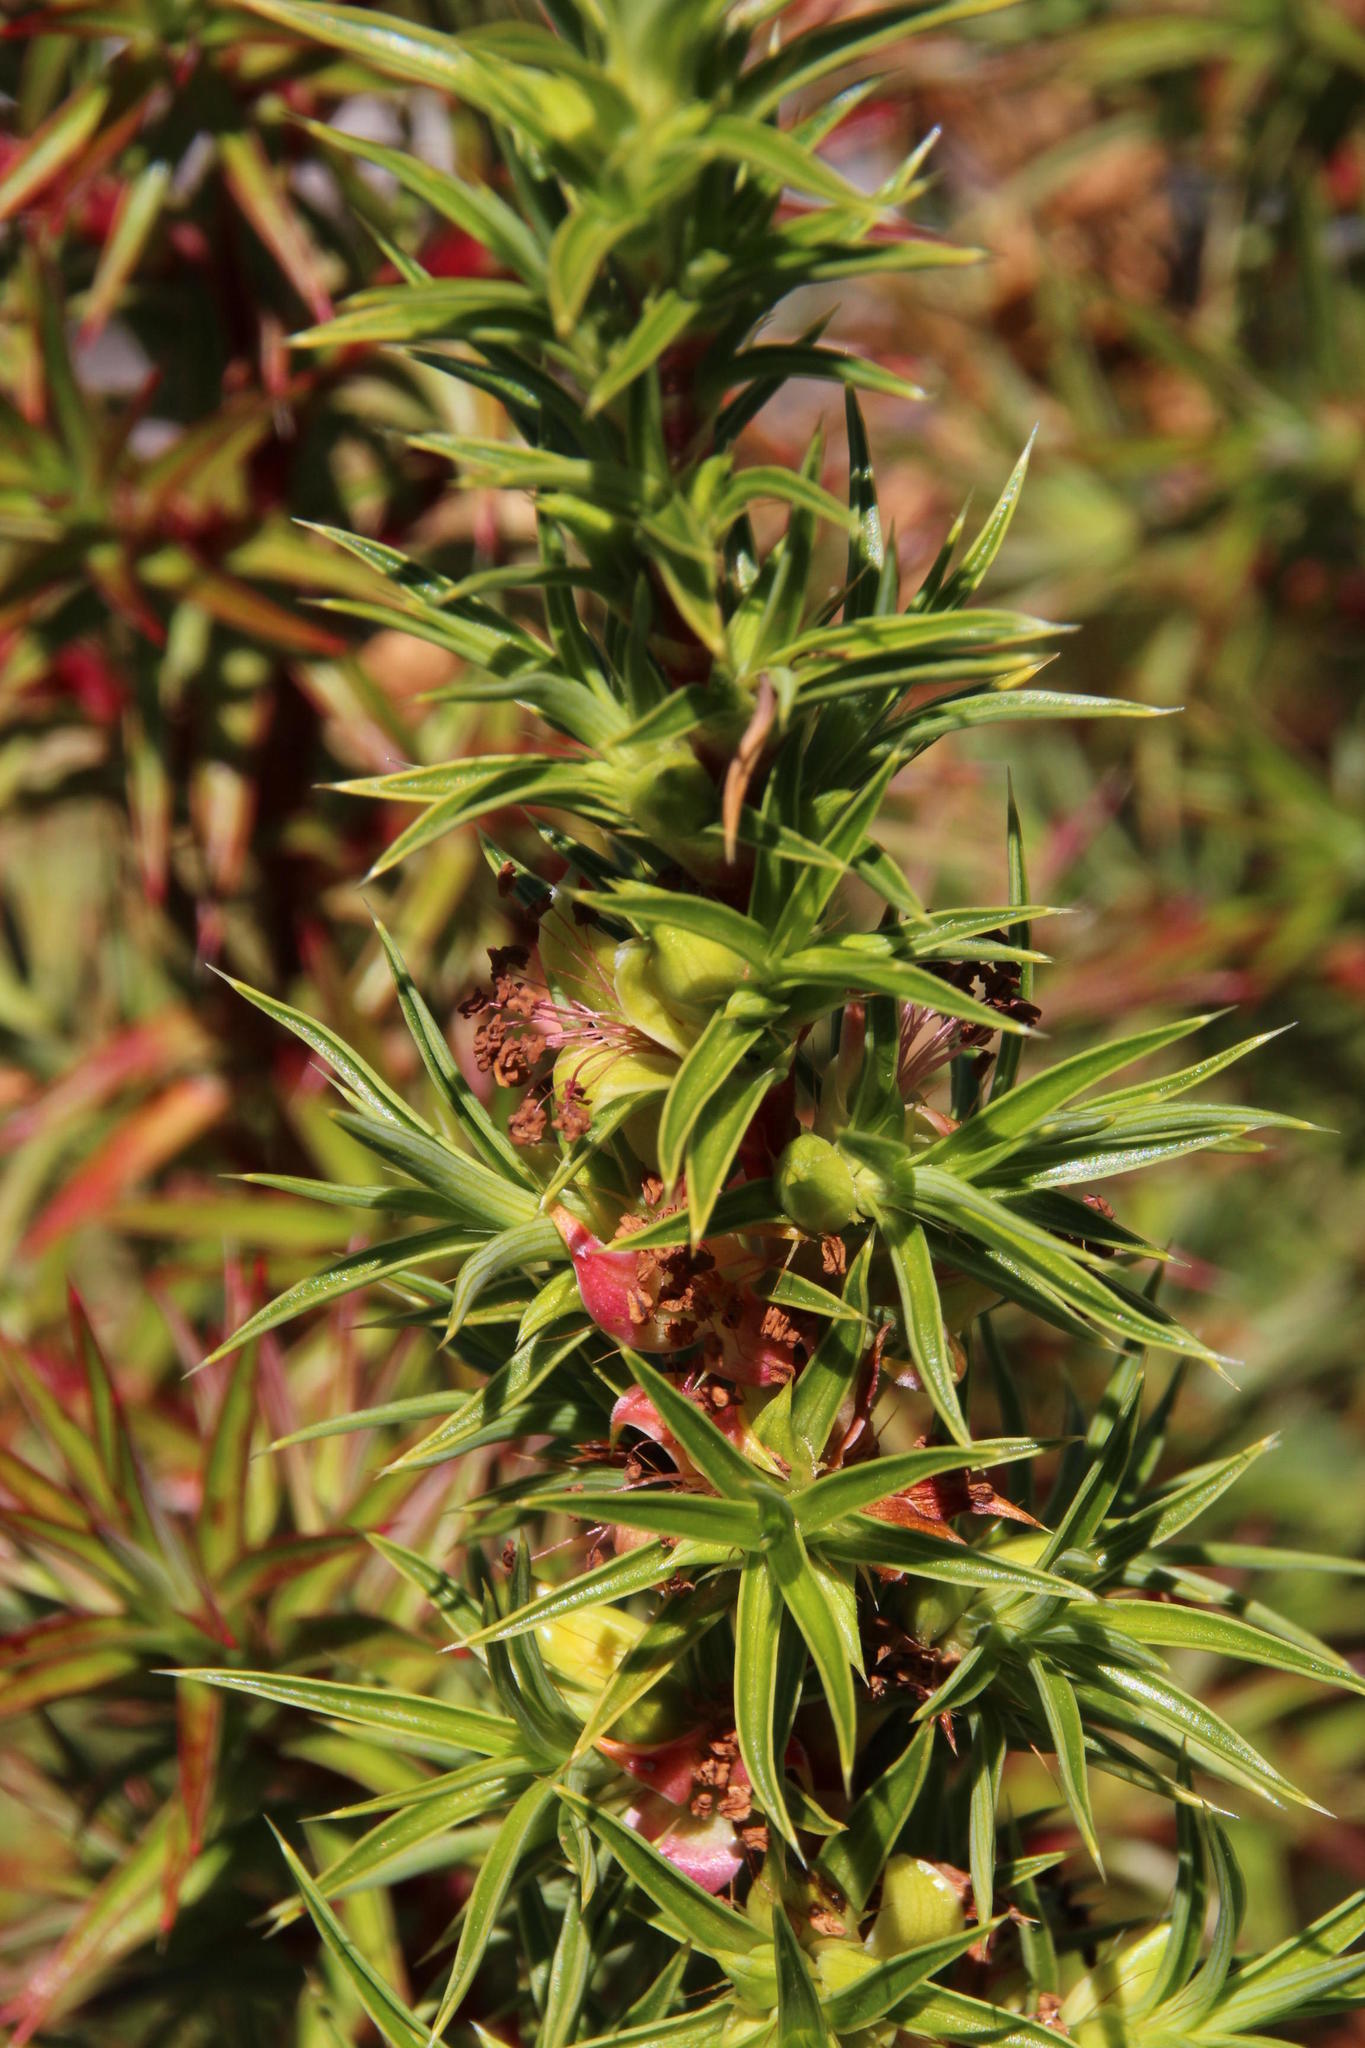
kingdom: Plantae
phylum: Tracheophyta
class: Magnoliopsida
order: Rosales
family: Rosaceae
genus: Cliffortia
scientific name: Cliffortia dregeana
